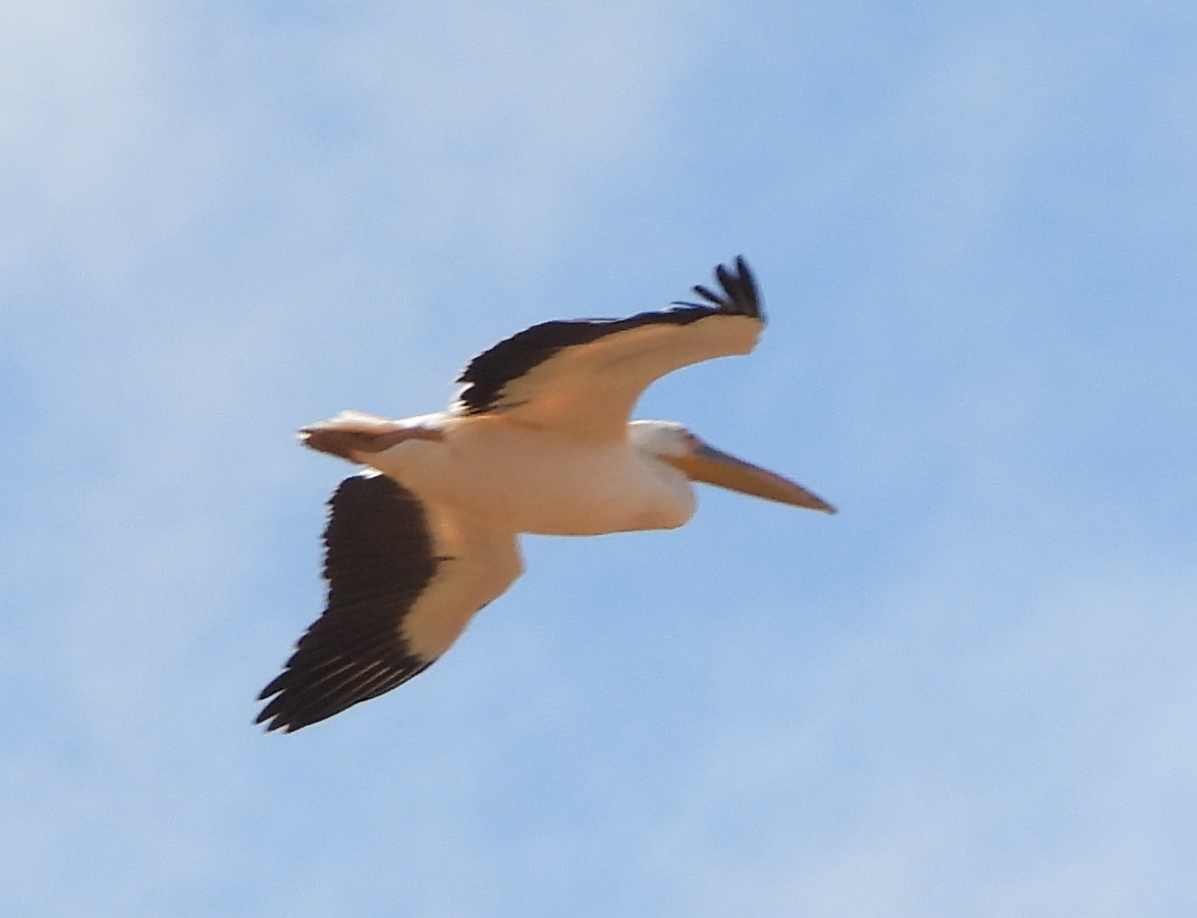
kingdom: Animalia
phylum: Chordata
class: Aves
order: Pelecaniformes
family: Pelecanidae
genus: Pelecanus
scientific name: Pelecanus onocrotalus
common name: Great white pelican
